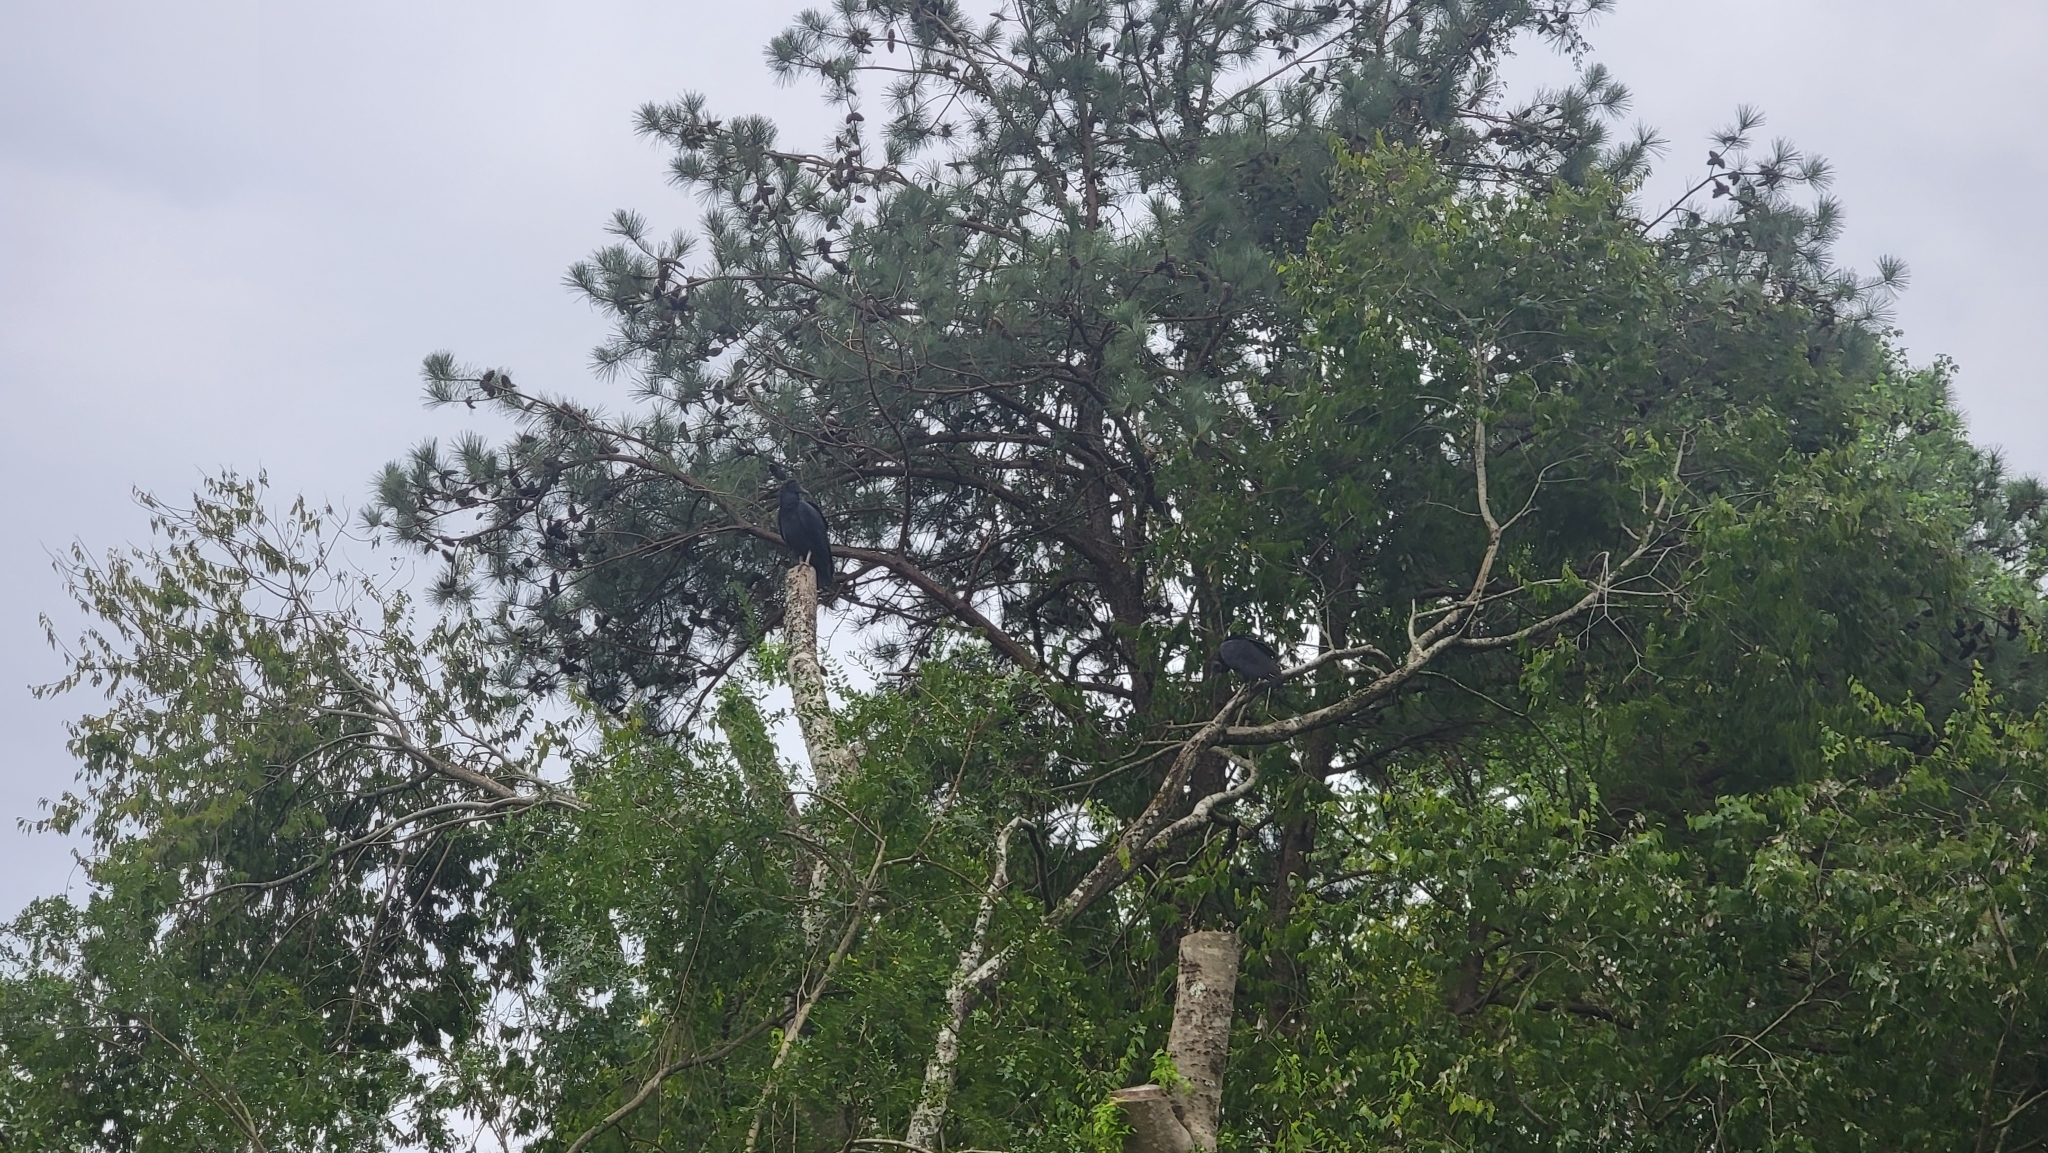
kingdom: Animalia
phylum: Chordata
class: Aves
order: Accipitriformes
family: Cathartidae
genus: Coragyps
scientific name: Coragyps atratus
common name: Black vulture
